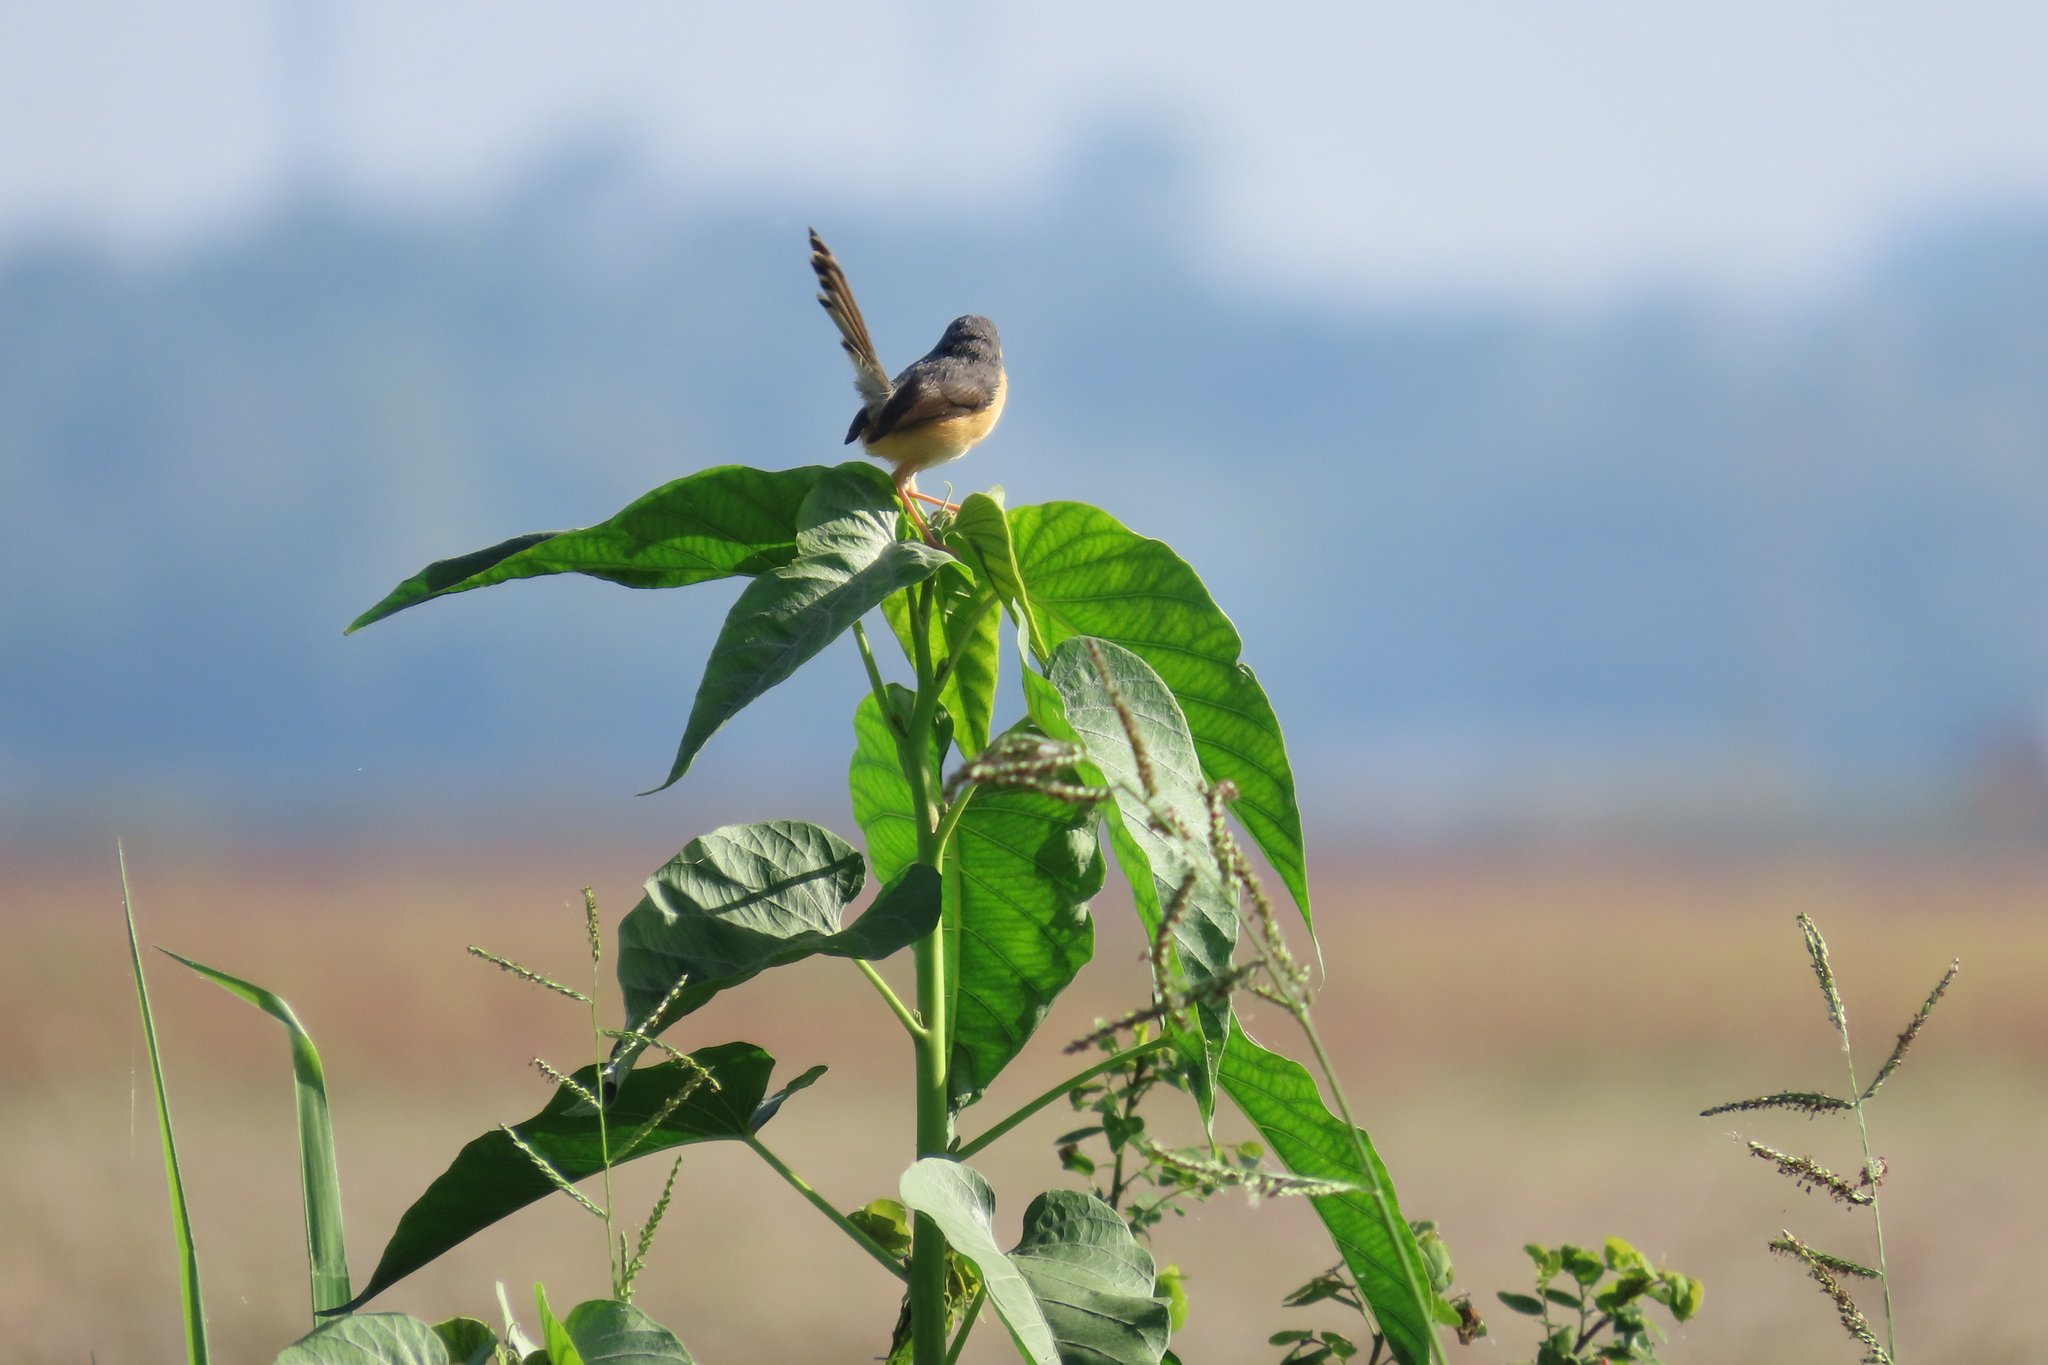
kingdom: Animalia
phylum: Chordata
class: Aves
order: Passeriformes
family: Cisticolidae
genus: Prinia
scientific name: Prinia socialis
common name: Ashy prinia
